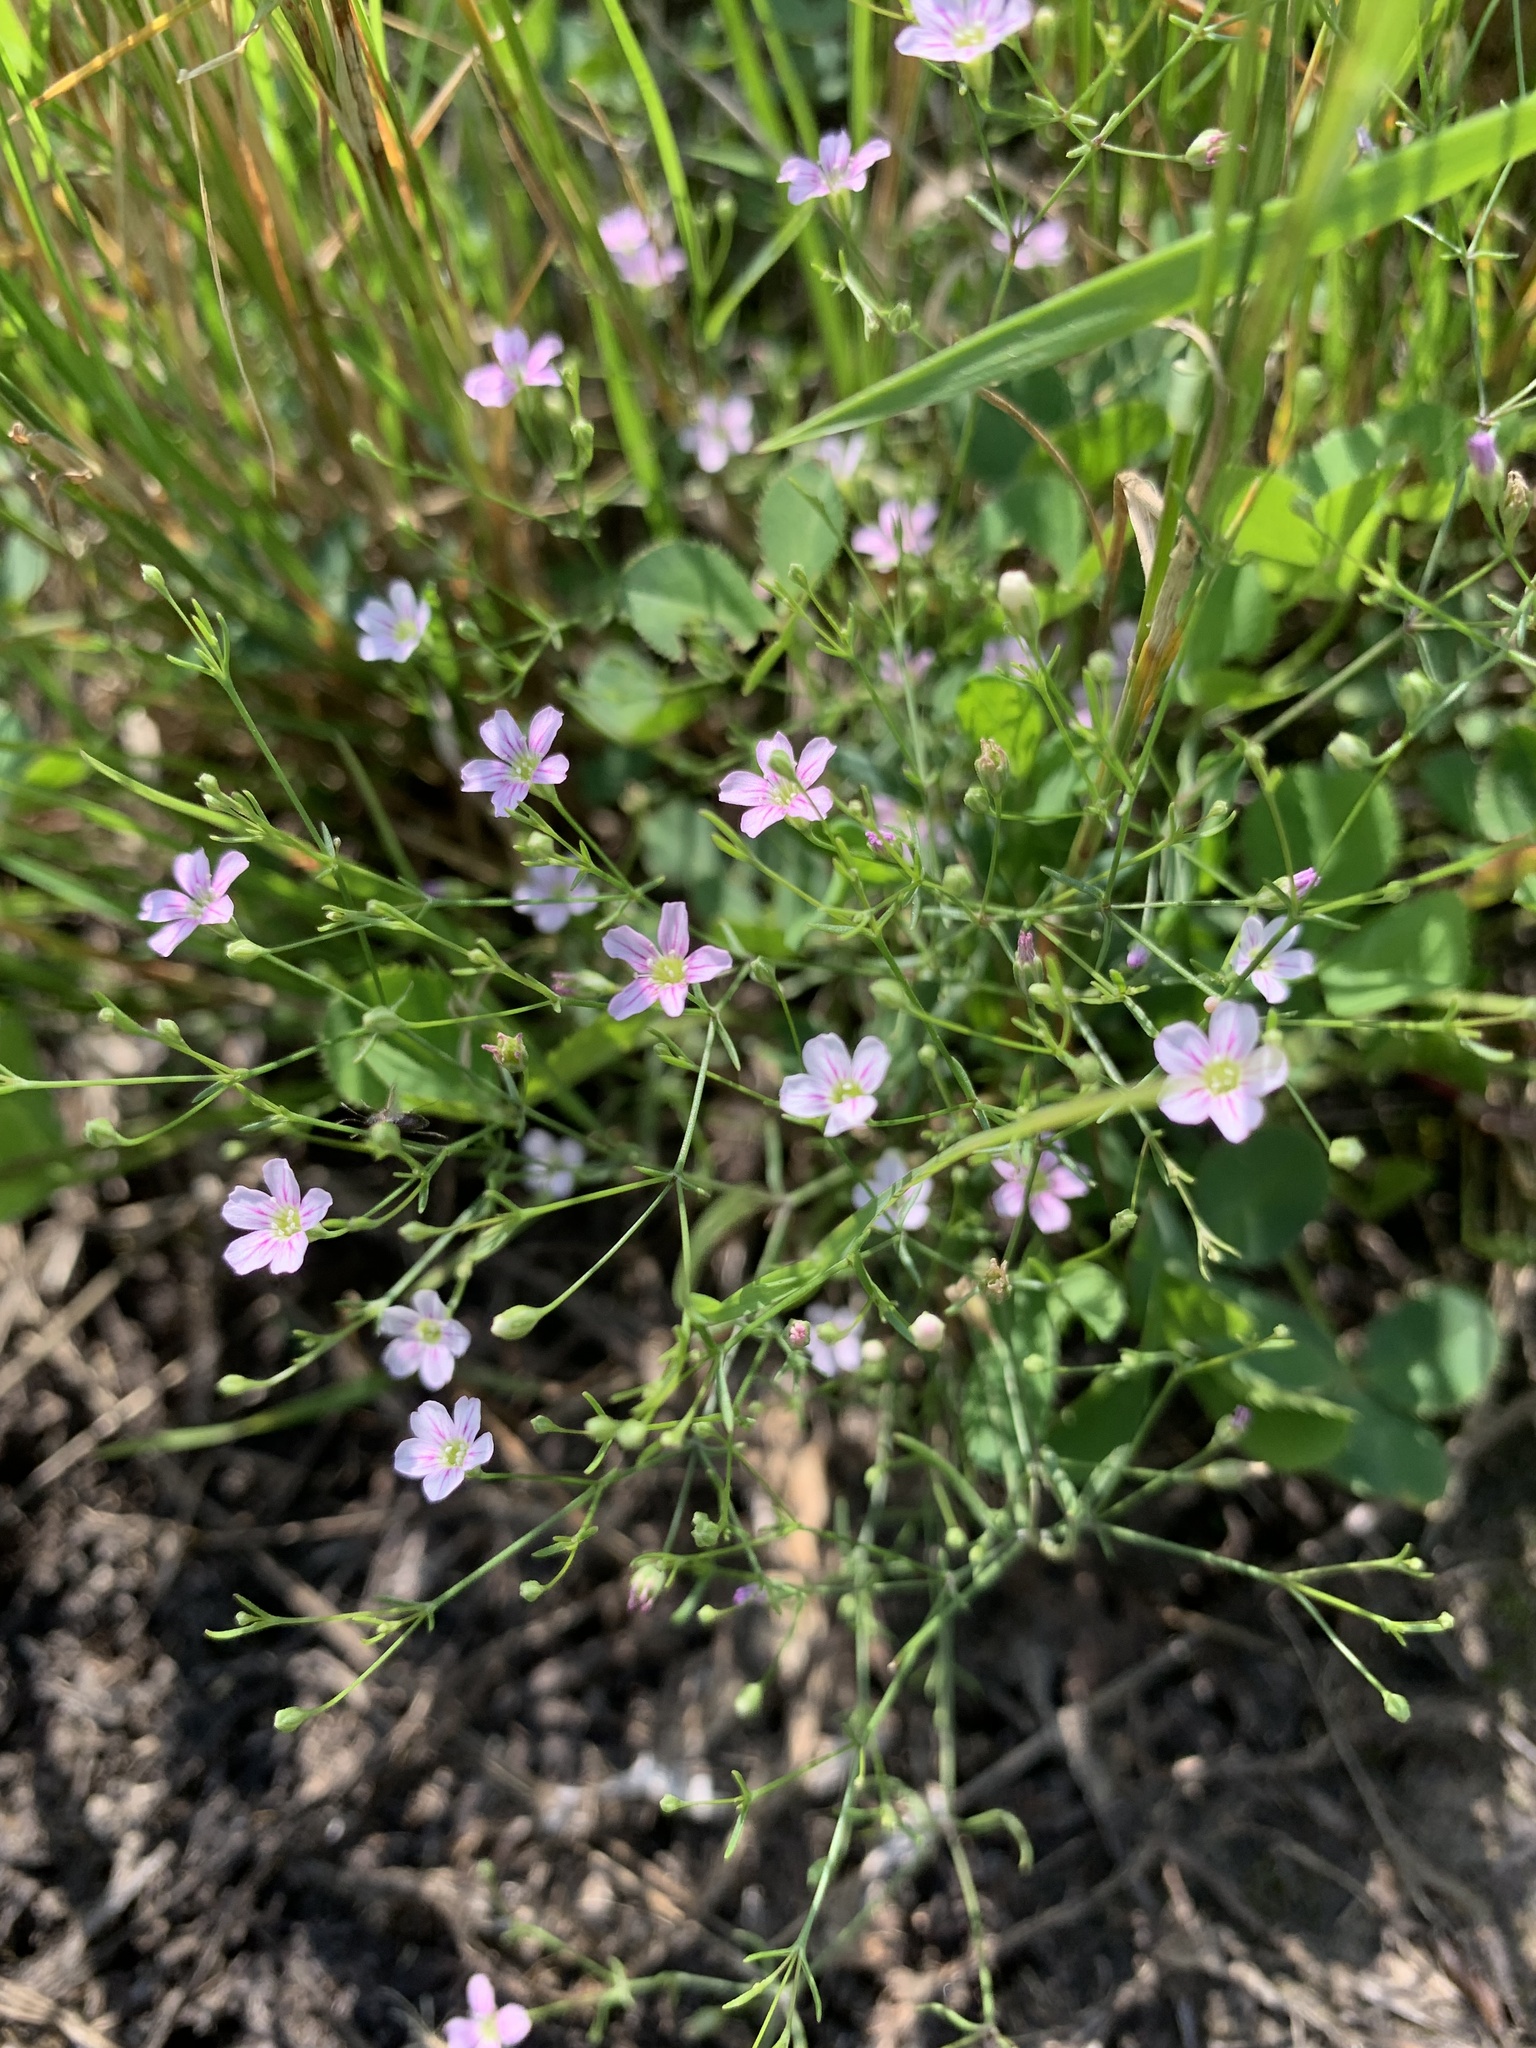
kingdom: Plantae
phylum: Tracheophyta
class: Magnoliopsida
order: Caryophyllales
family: Caryophyllaceae
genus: Psammophiliella
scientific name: Psammophiliella muralis
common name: Cushion baby's-breath
